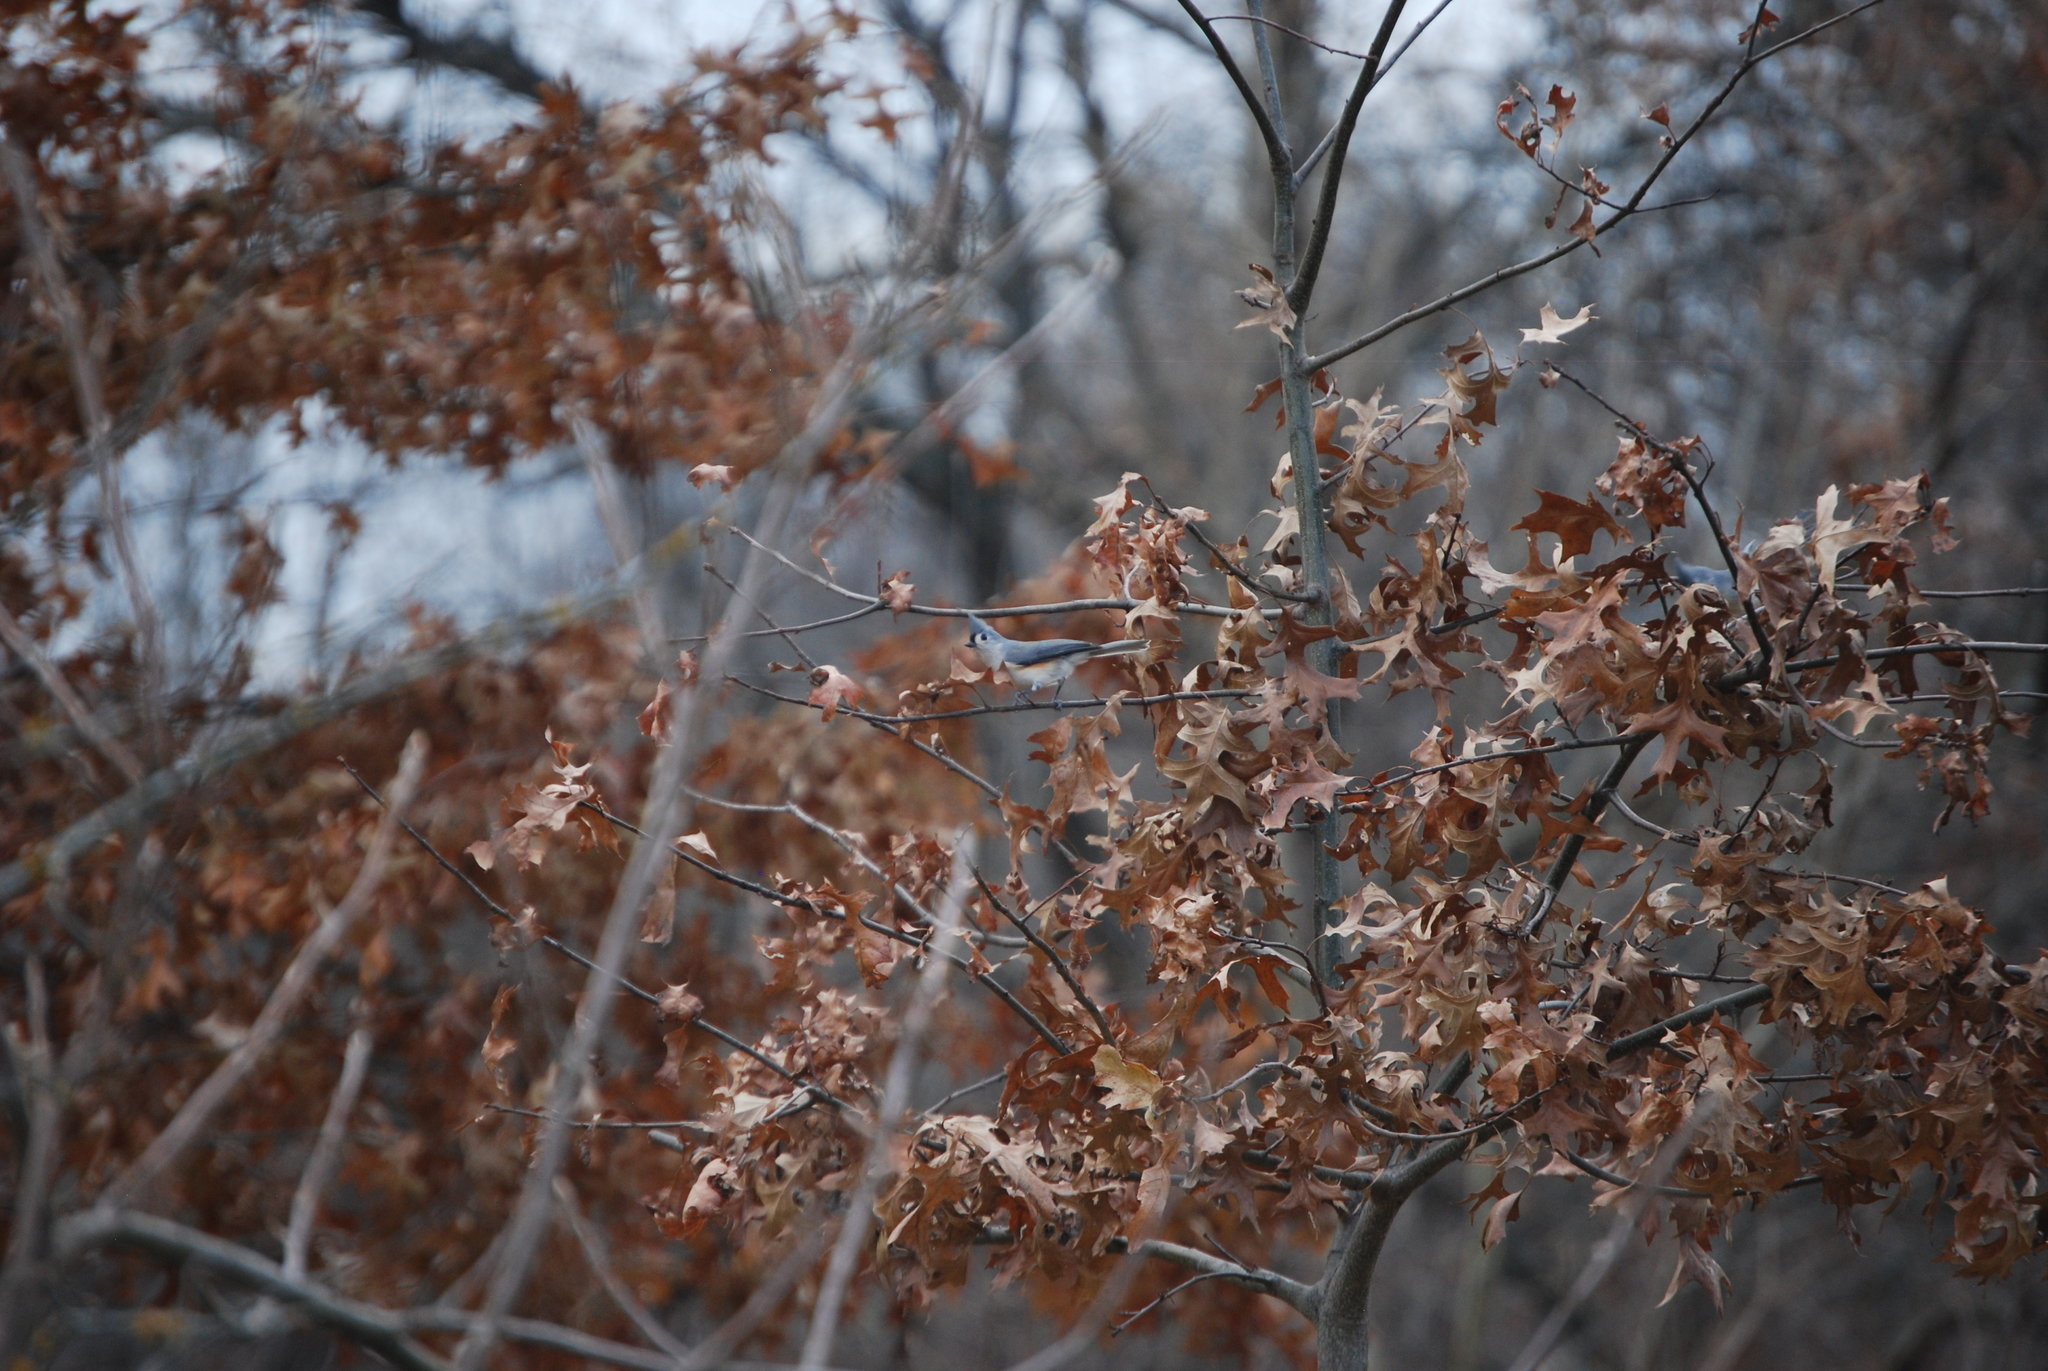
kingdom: Animalia
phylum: Chordata
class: Aves
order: Passeriformes
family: Paridae
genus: Baeolophus
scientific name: Baeolophus bicolor
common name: Tufted titmouse
